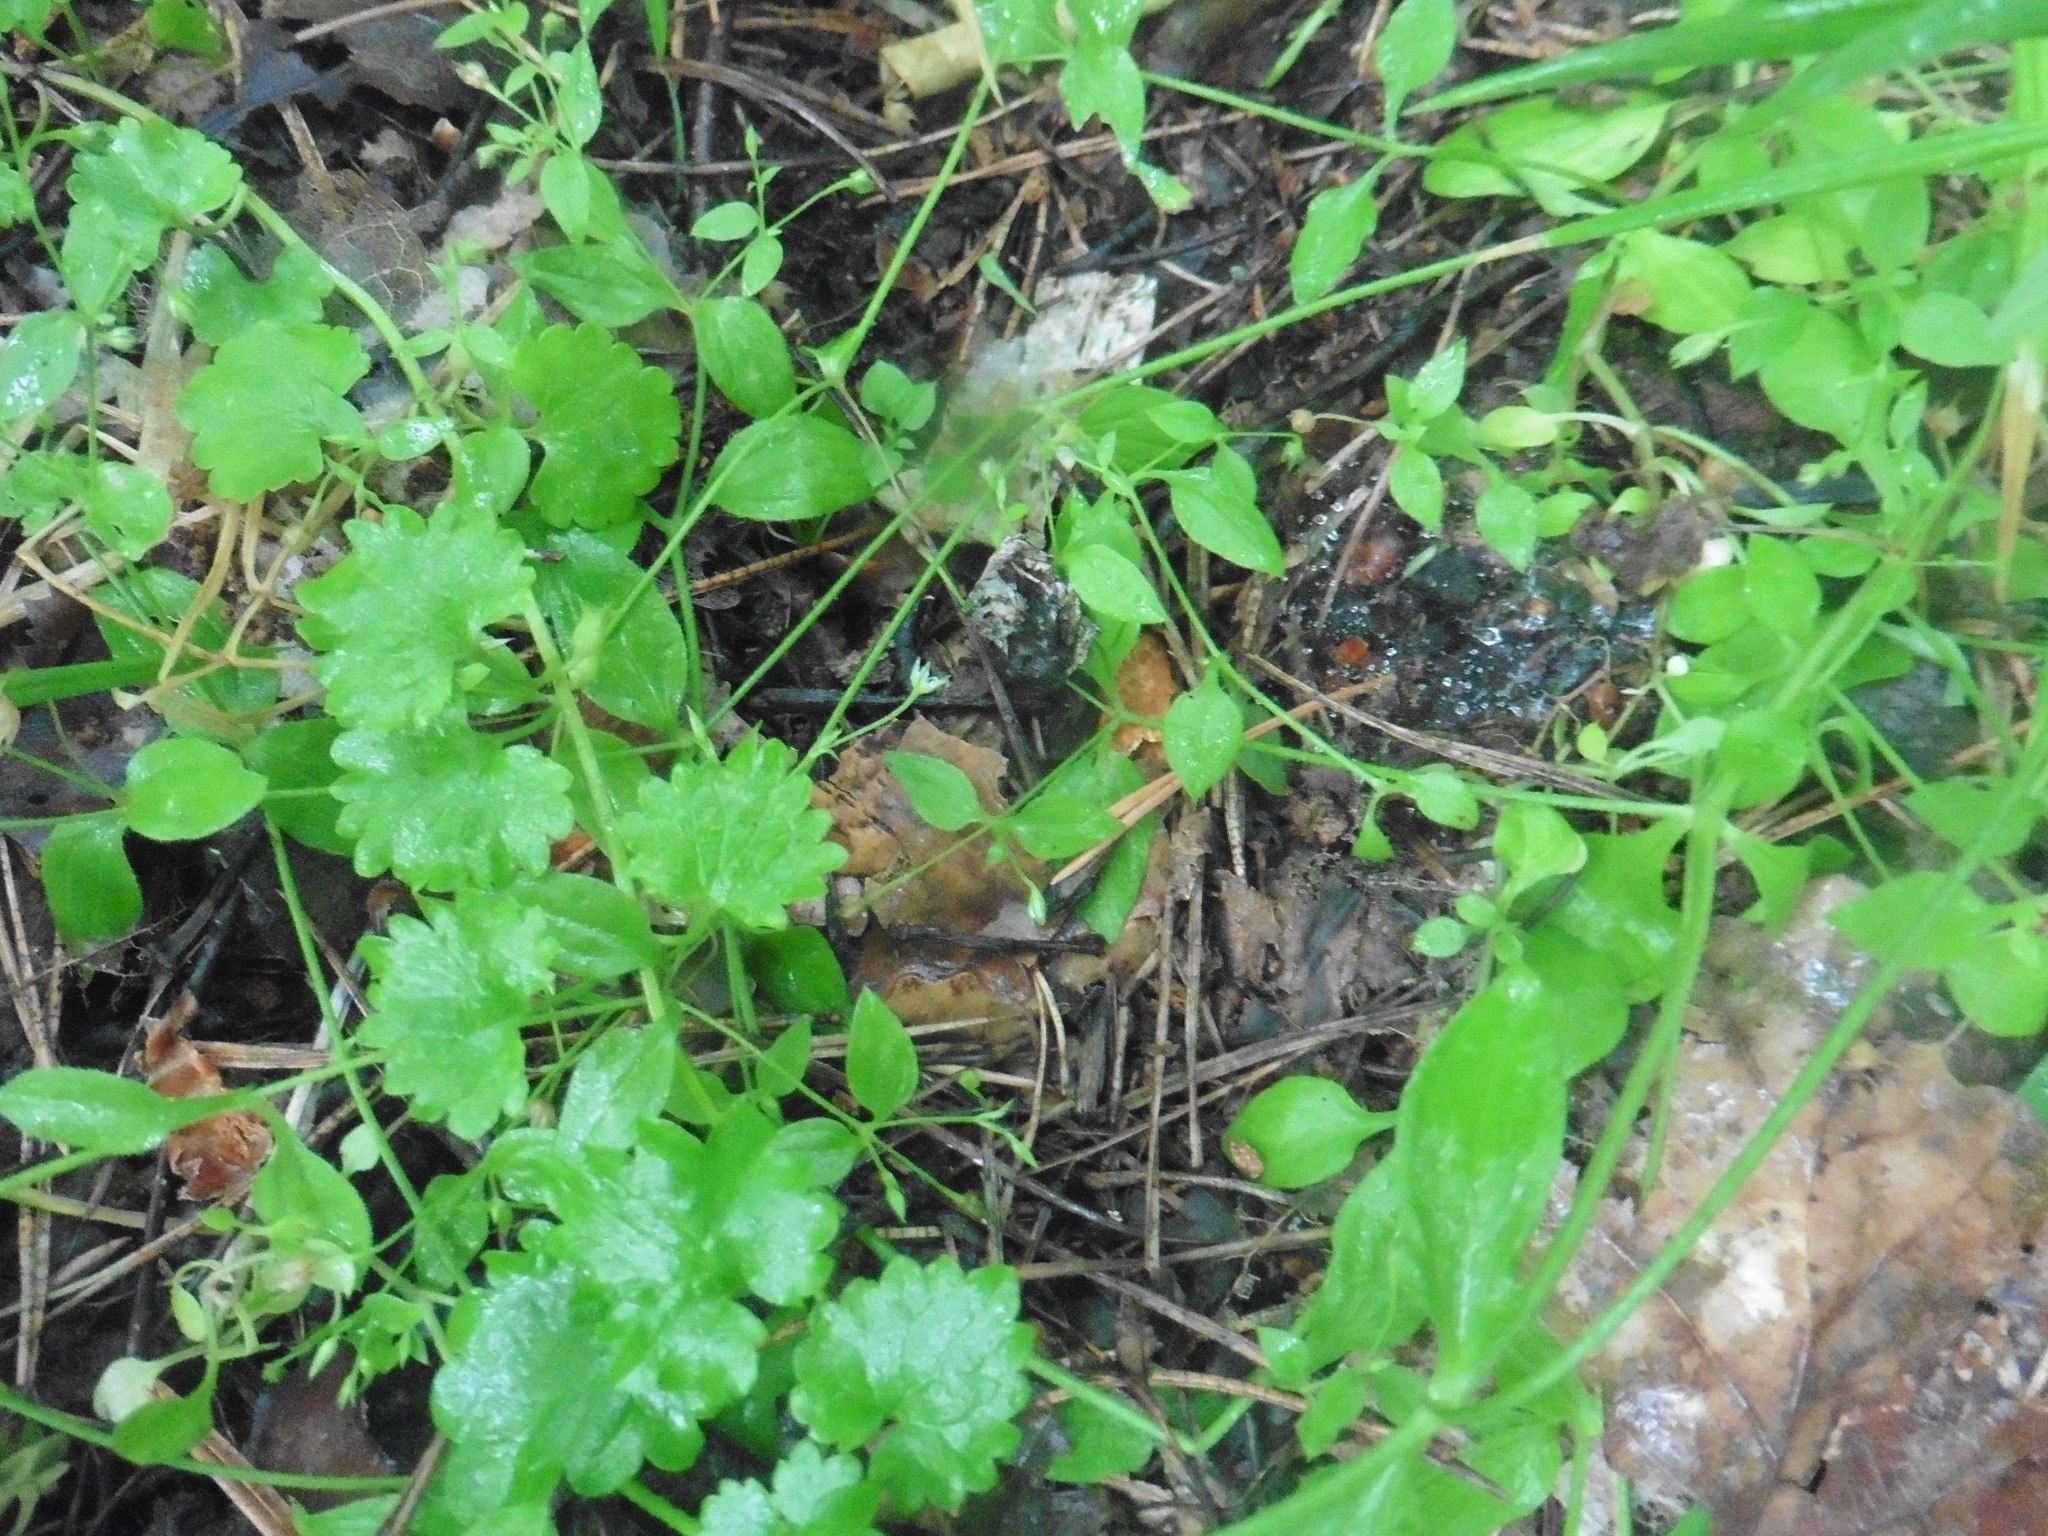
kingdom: Plantae
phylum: Tracheophyta
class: Magnoliopsida
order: Lamiales
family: Lamiaceae
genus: Glechoma
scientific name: Glechoma hederacea
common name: Ground ivy
